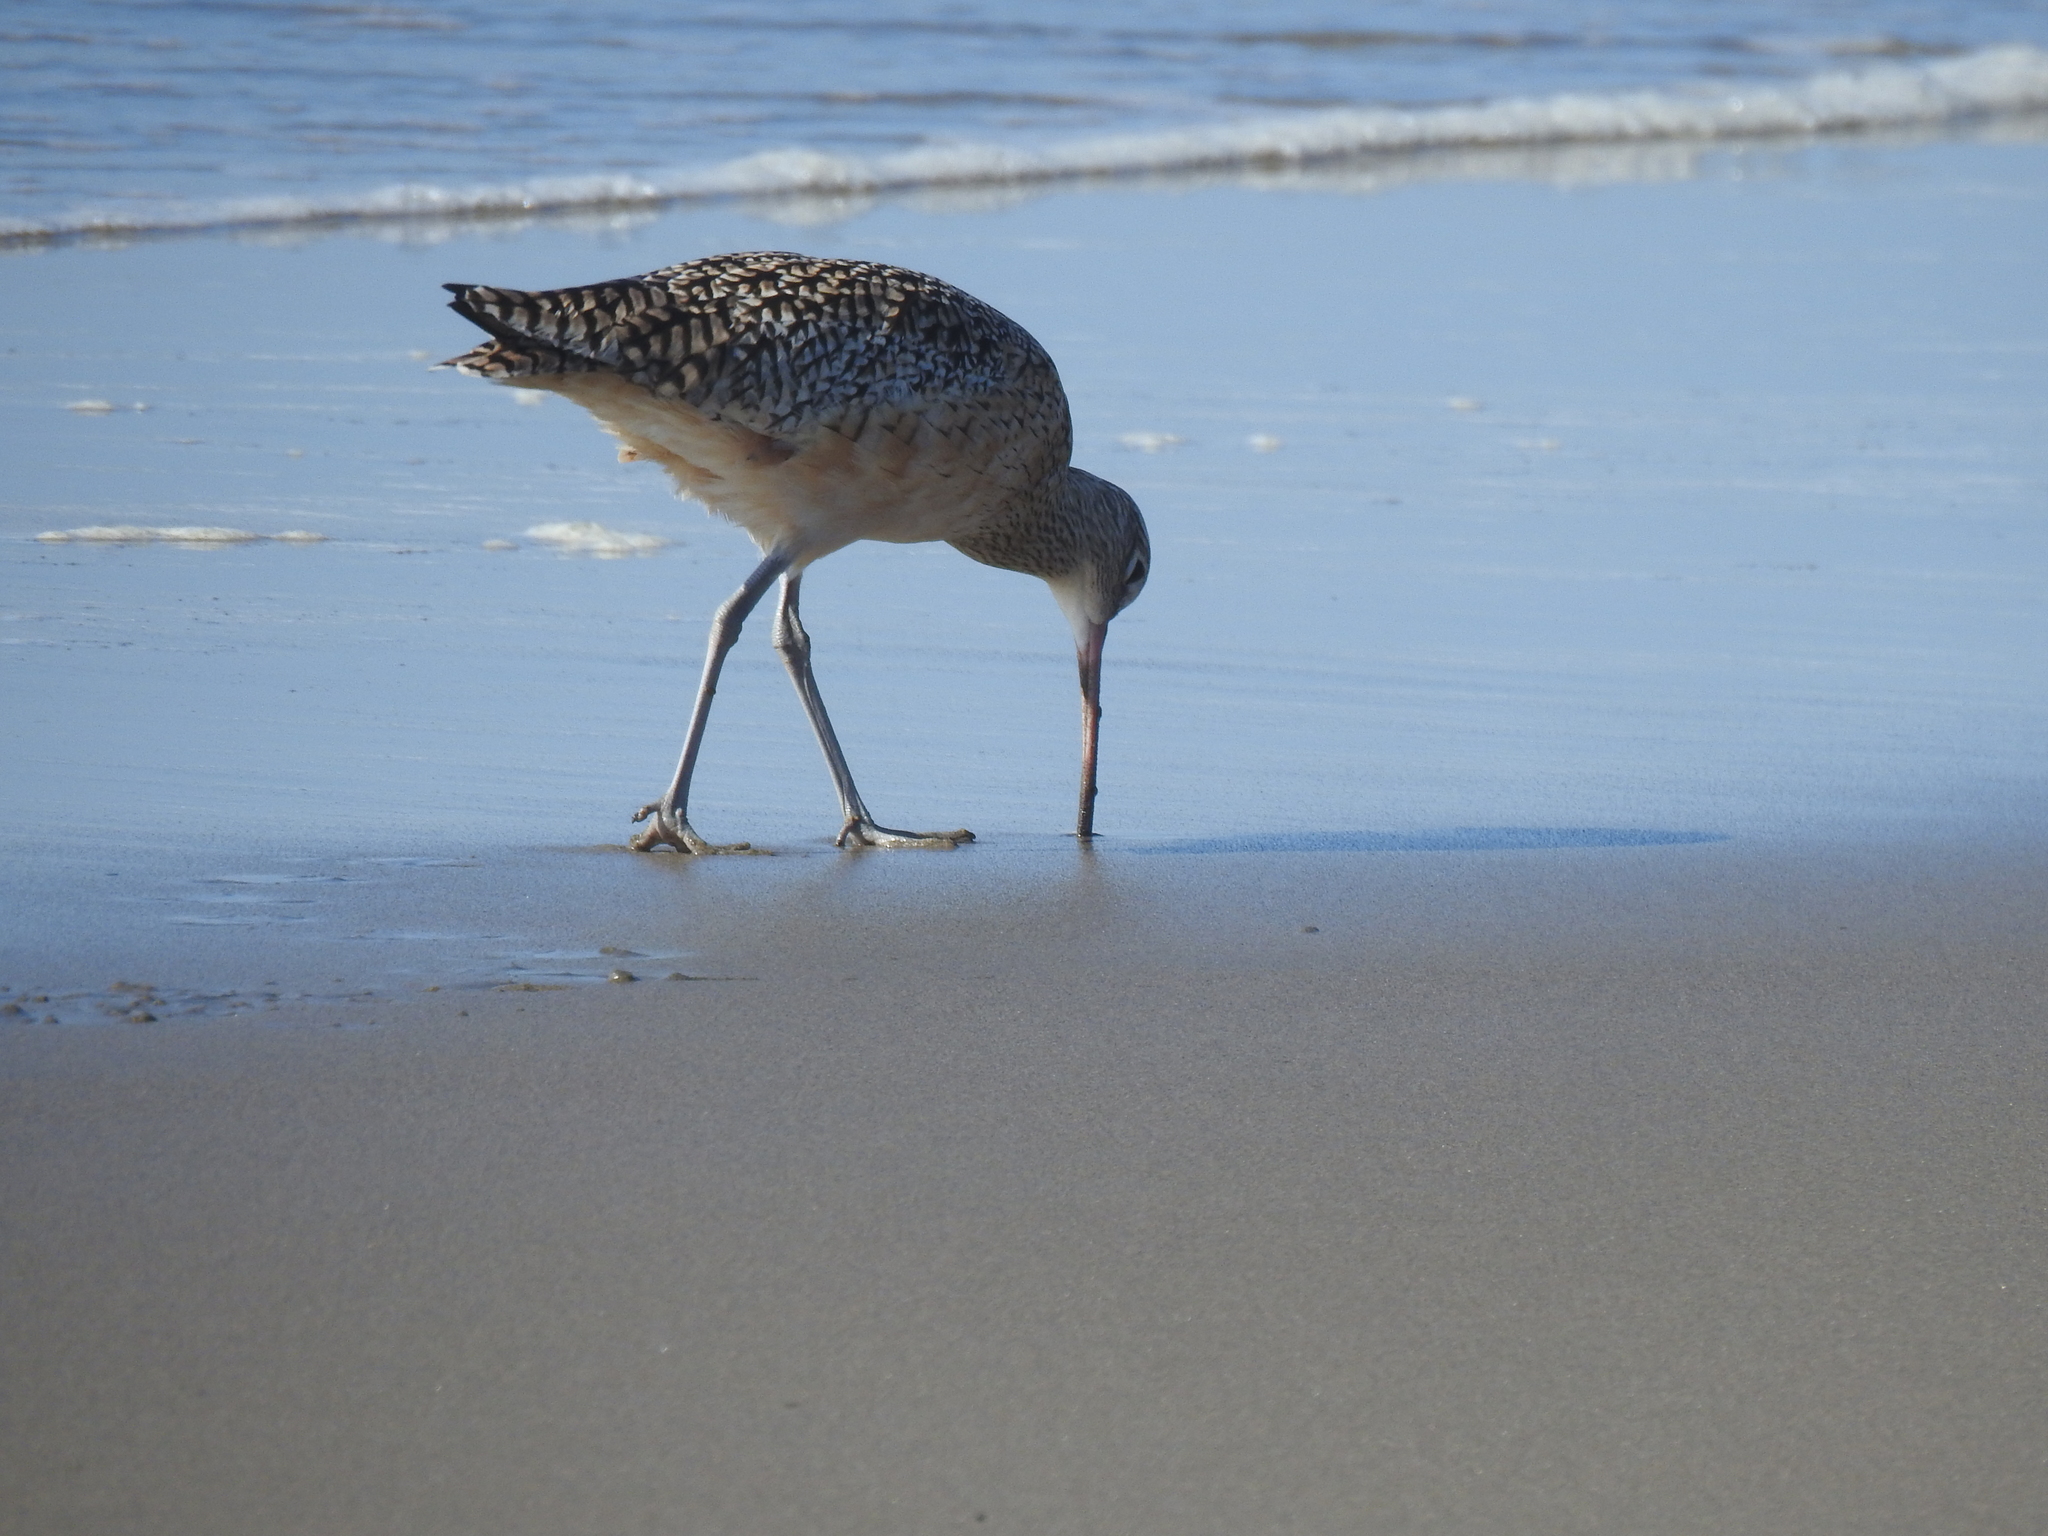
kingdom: Animalia
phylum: Chordata
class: Aves
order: Charadriiformes
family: Scolopacidae
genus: Limosa
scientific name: Limosa fedoa
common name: Marbled godwit
